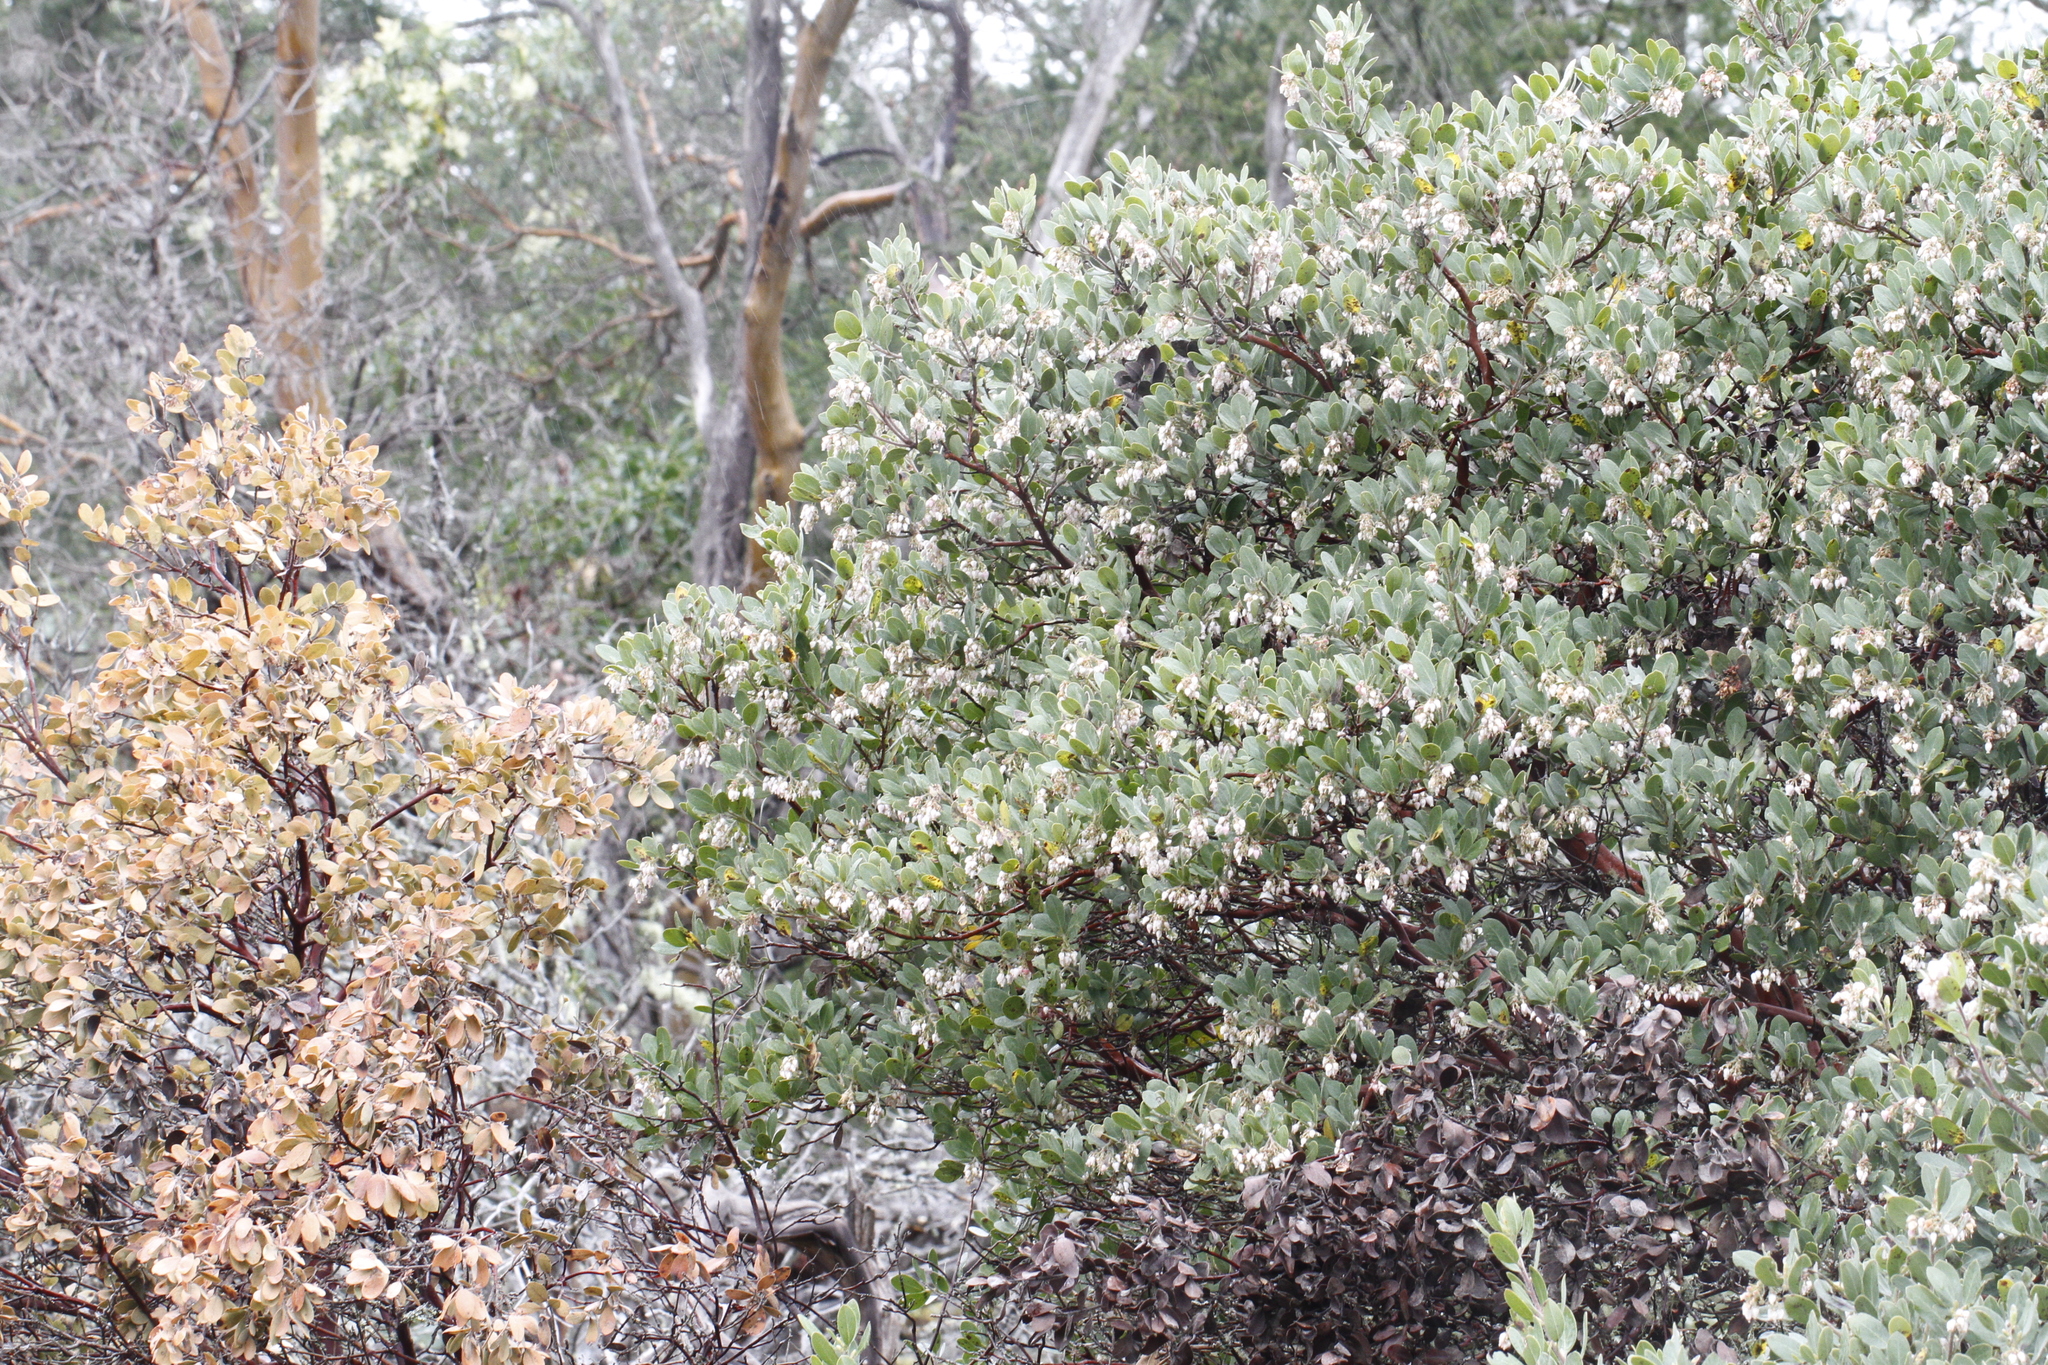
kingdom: Plantae
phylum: Tracheophyta
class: Magnoliopsida
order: Ericales
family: Ericaceae
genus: Arctostaphylos
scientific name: Arctostaphylos columbiana
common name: Bristly bearberry
